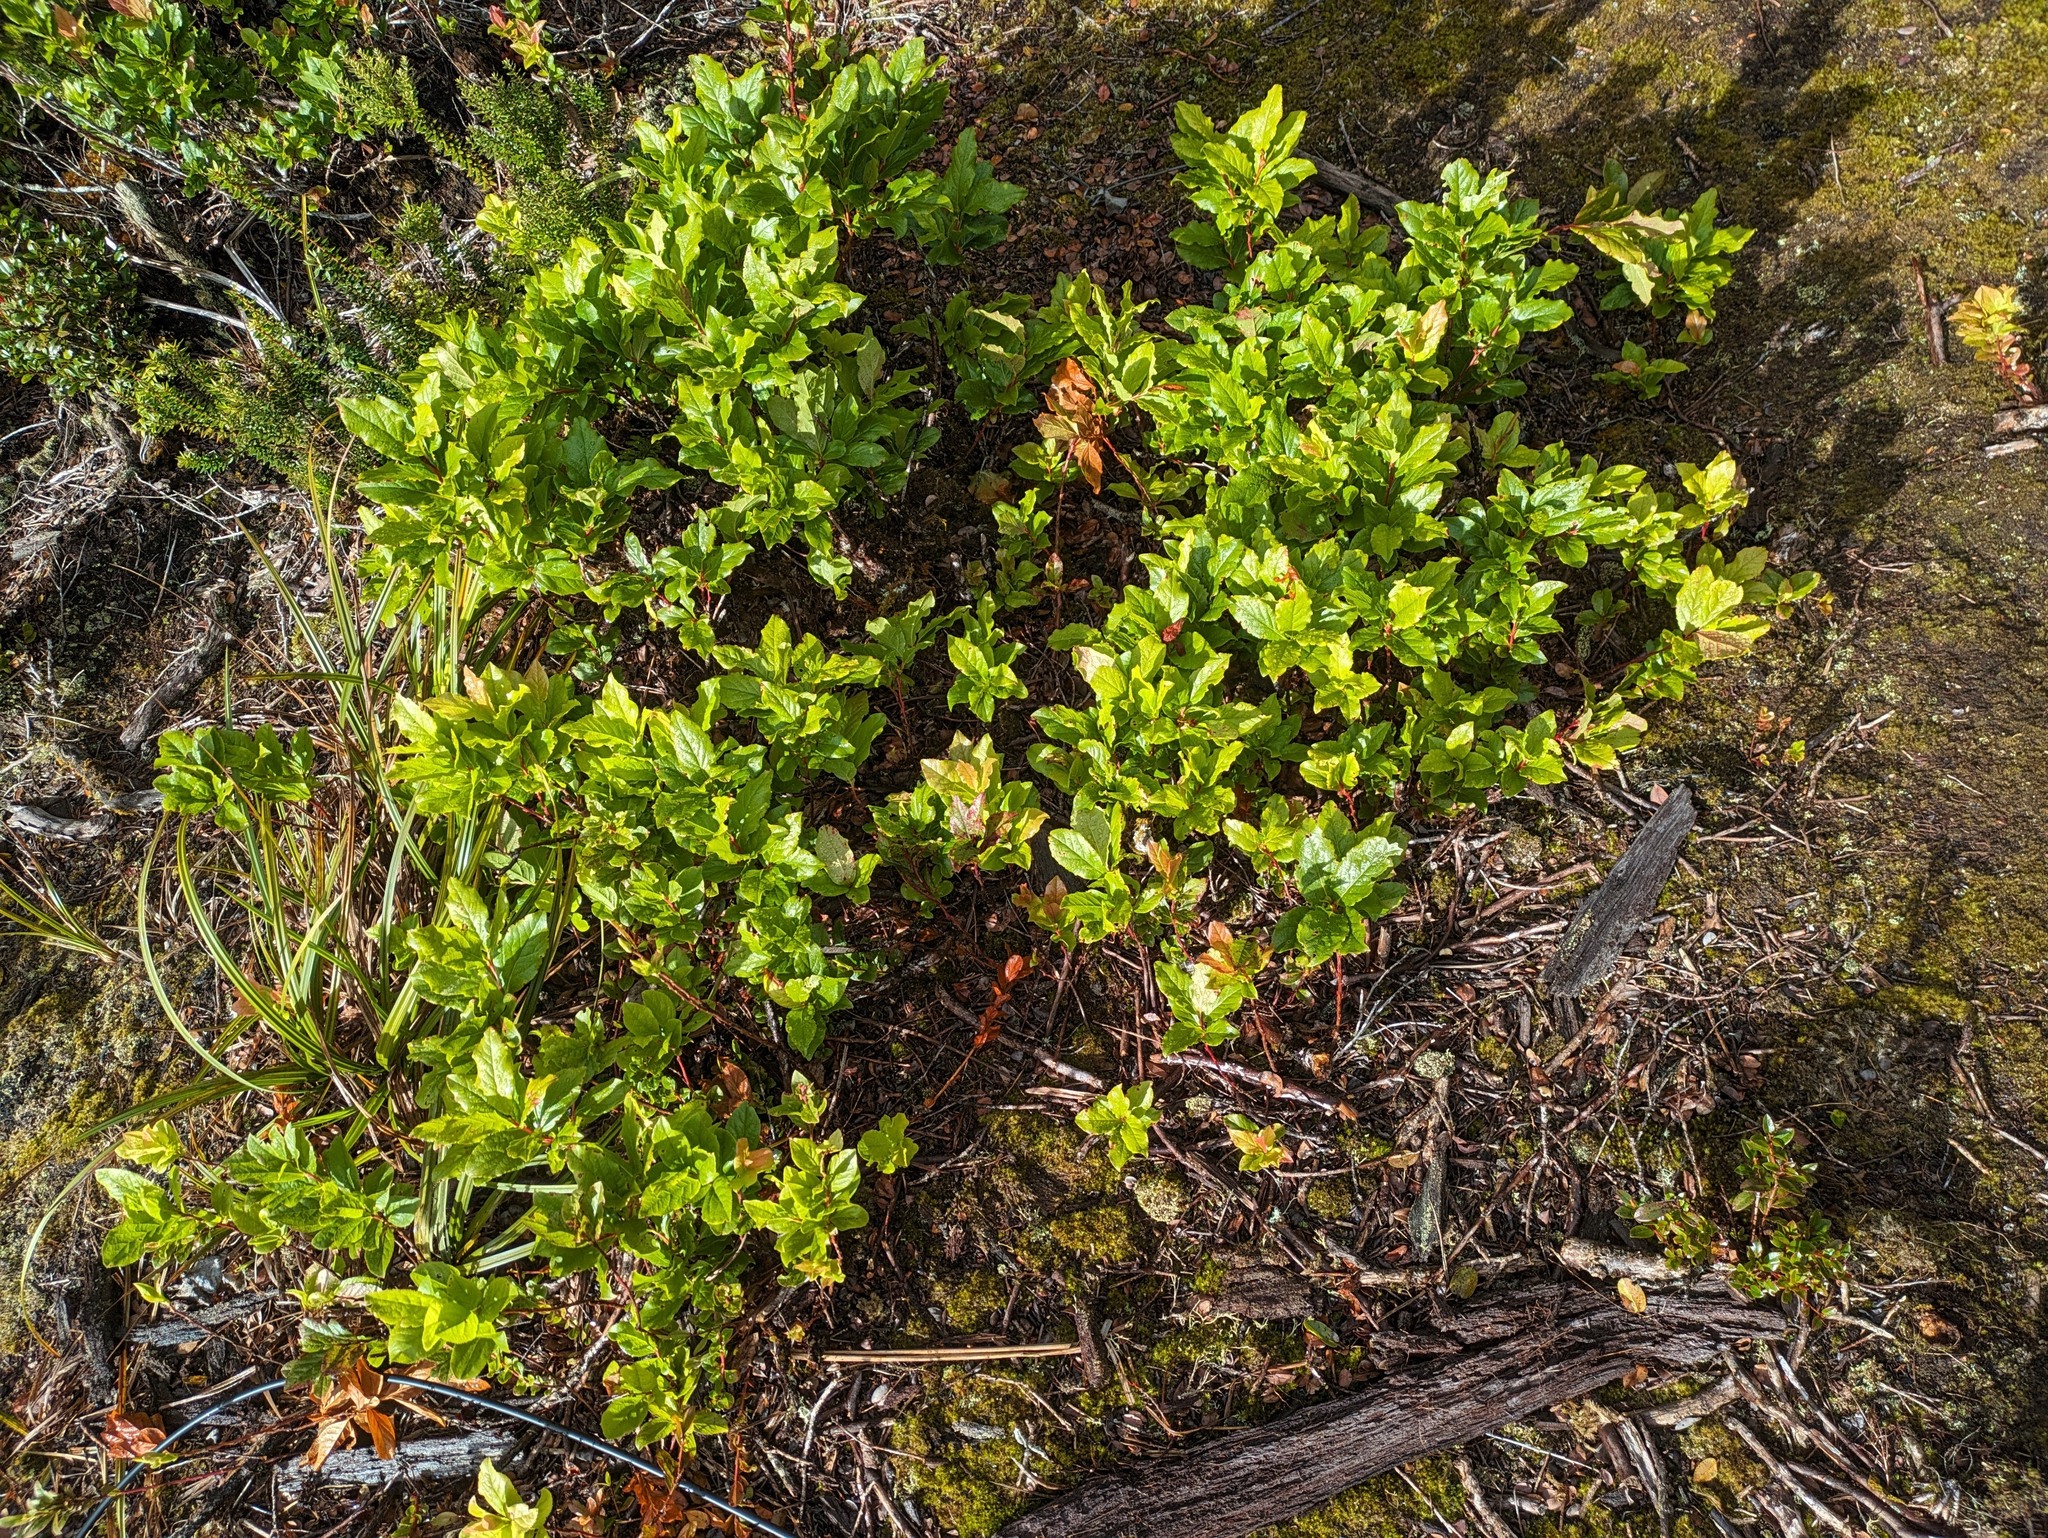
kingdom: Plantae
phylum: Tracheophyta
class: Magnoliopsida
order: Ericales
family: Ericaceae
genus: Vaccinium
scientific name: Vaccinium calycinum
